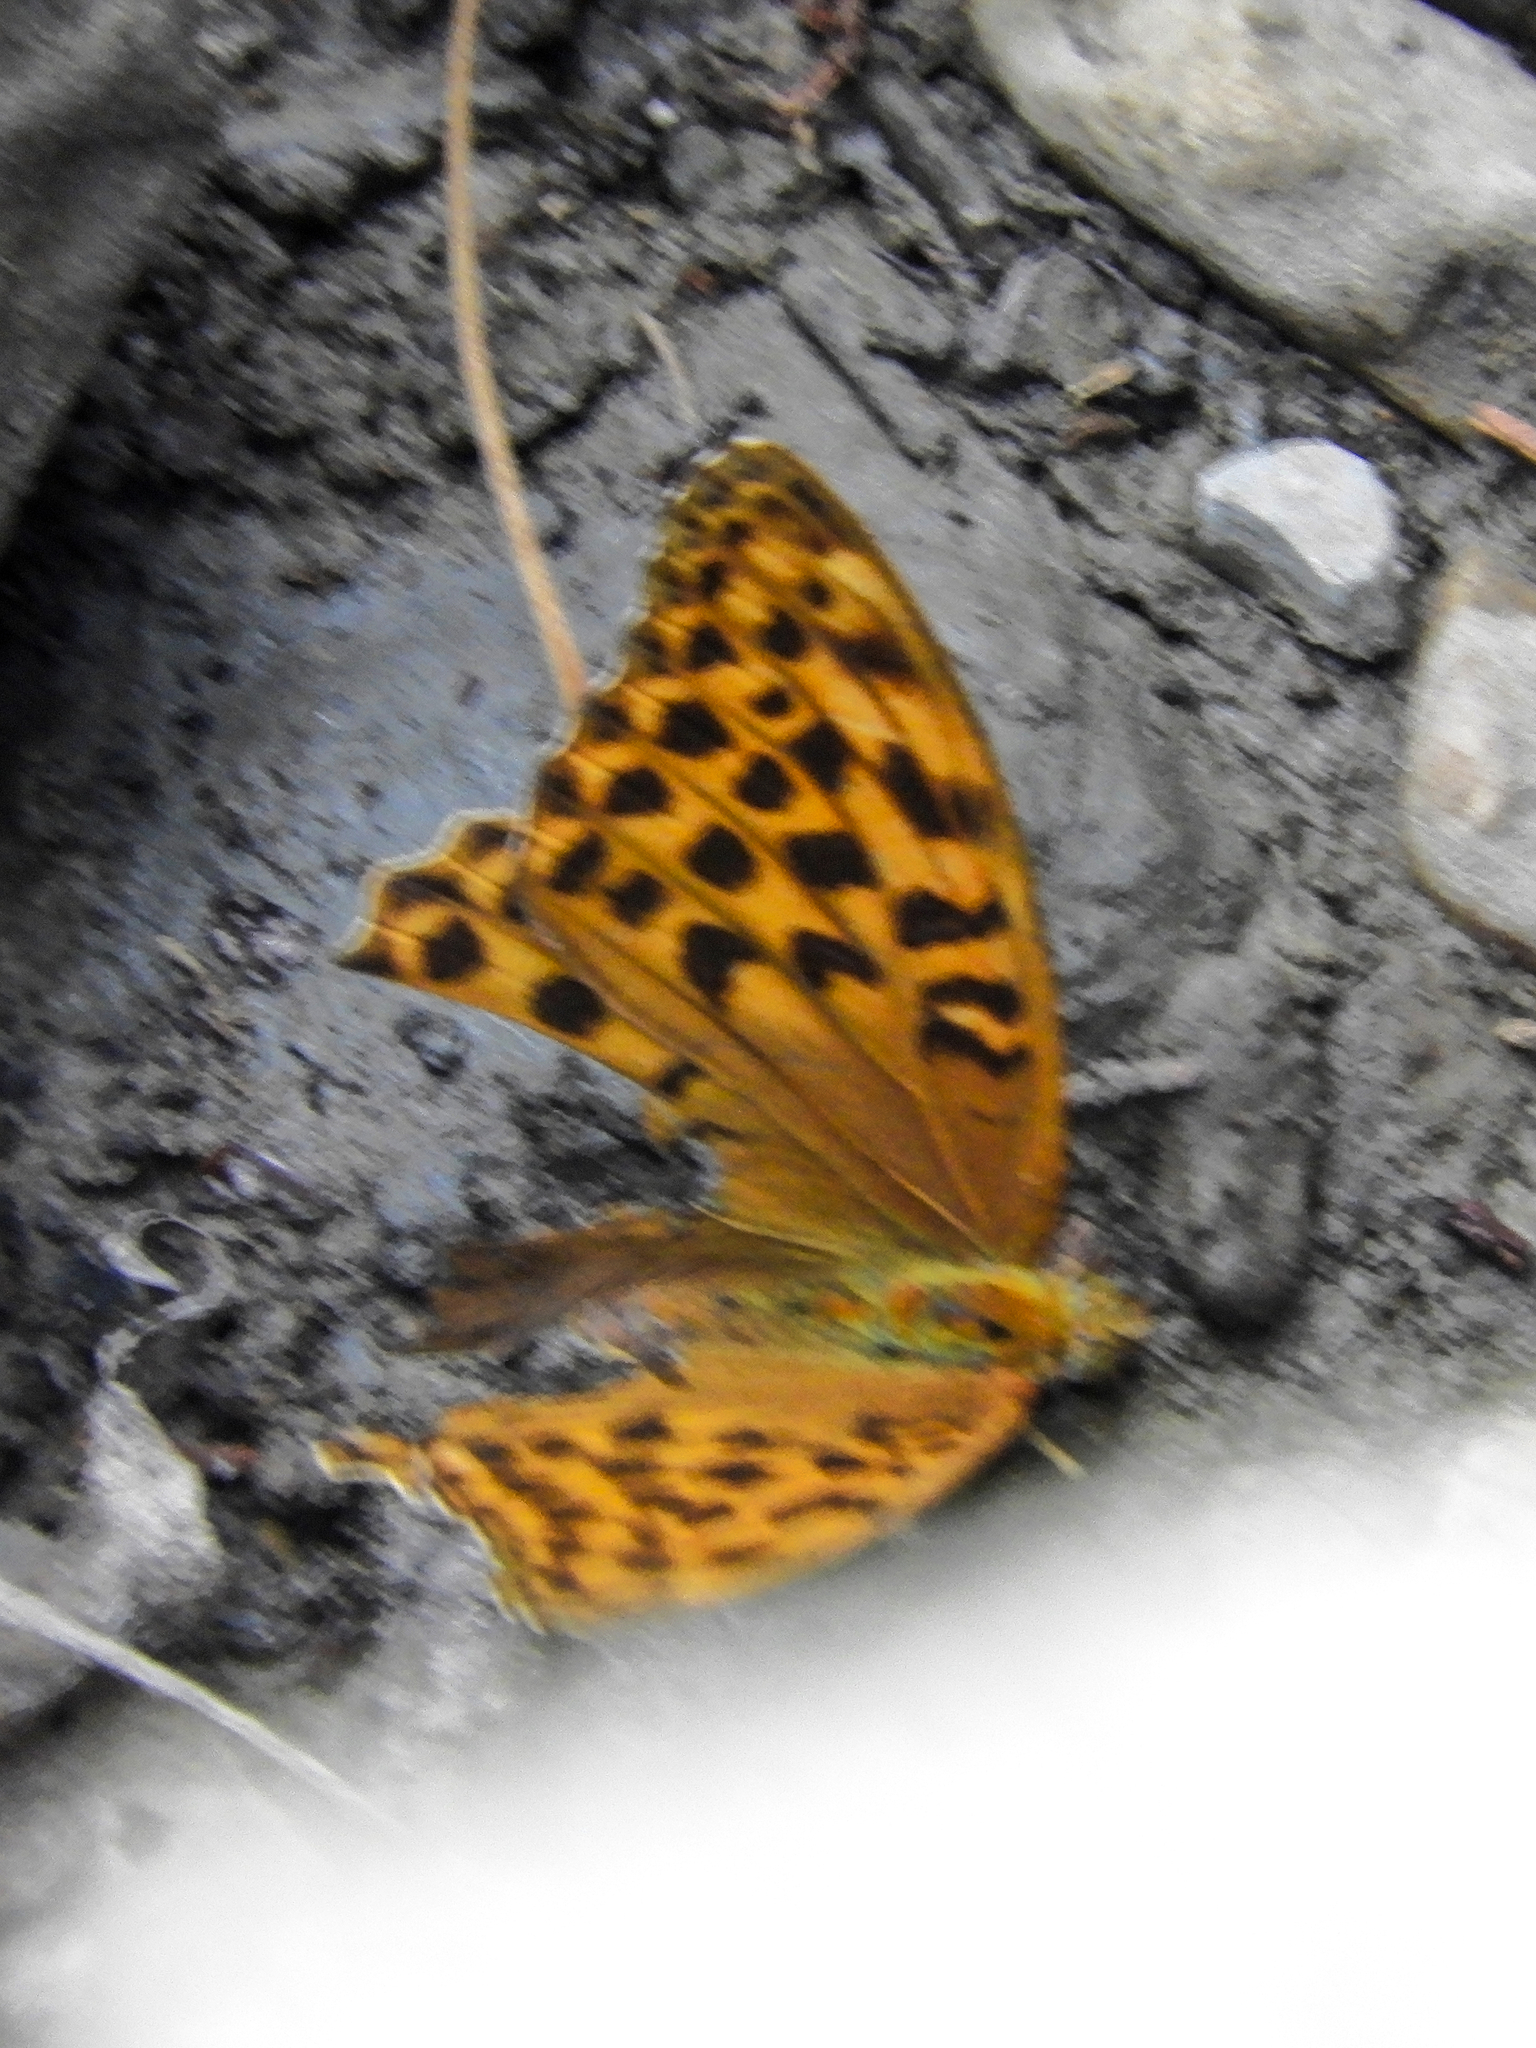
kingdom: Animalia
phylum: Arthropoda
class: Insecta
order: Lepidoptera
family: Nymphalidae
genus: Argynnis
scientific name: Argynnis paphia
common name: Silver-washed fritillary
